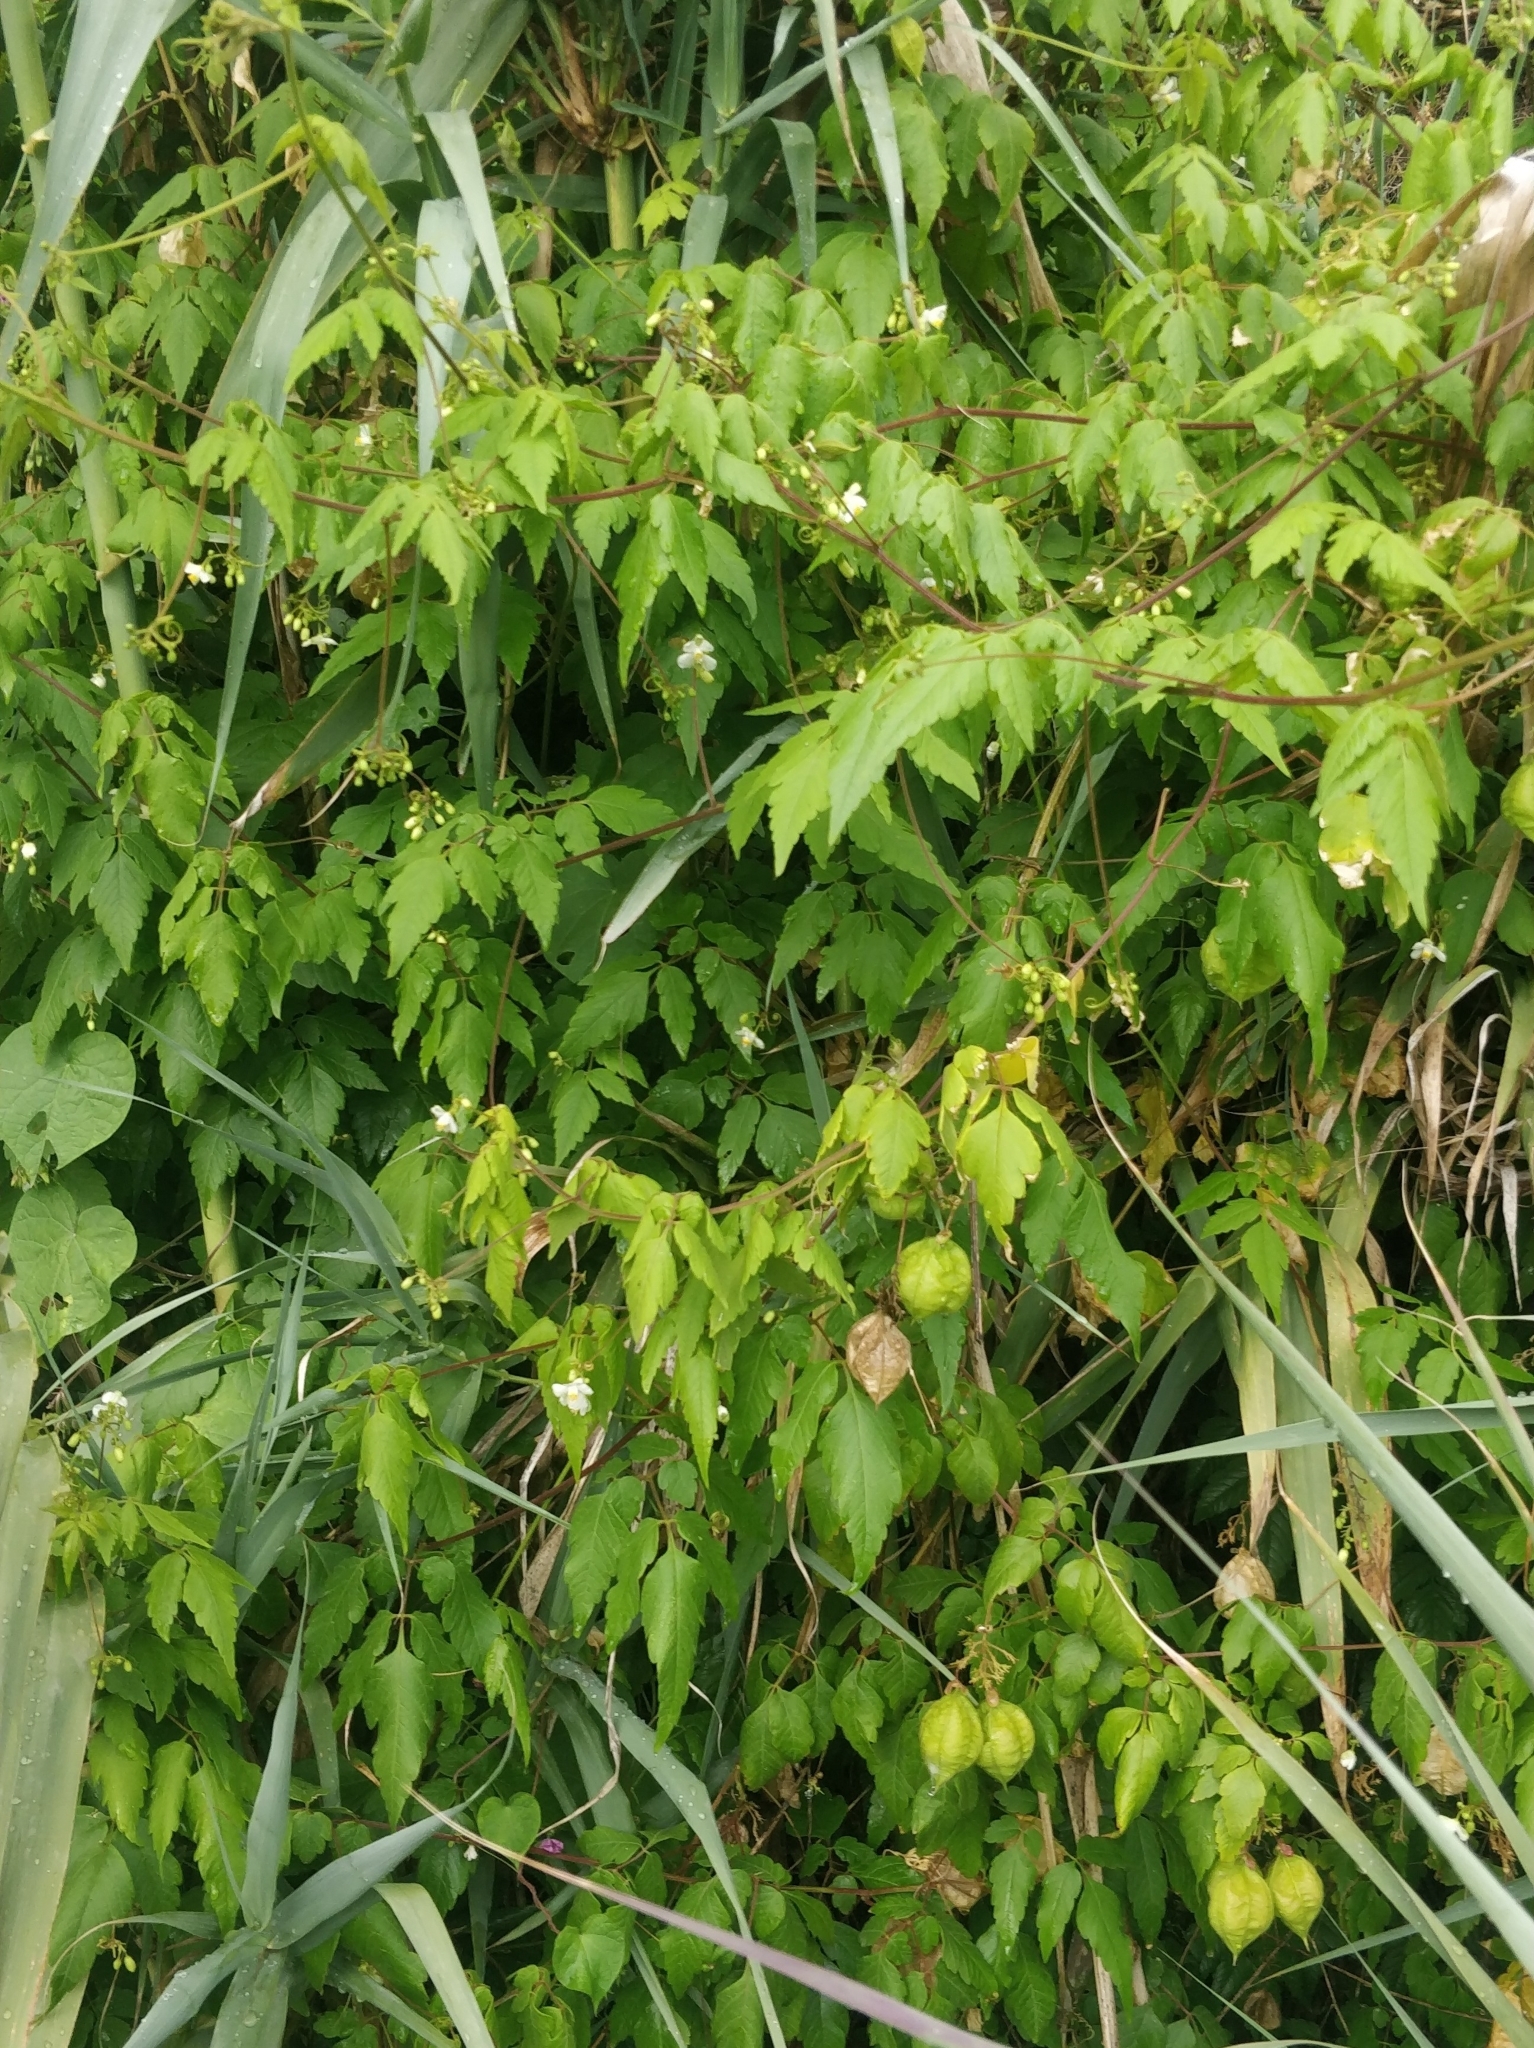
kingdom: Plantae
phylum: Tracheophyta
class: Magnoliopsida
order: Sapindales
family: Sapindaceae
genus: Cardiospermum
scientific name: Cardiospermum grandiflorum
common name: Balloon vine
